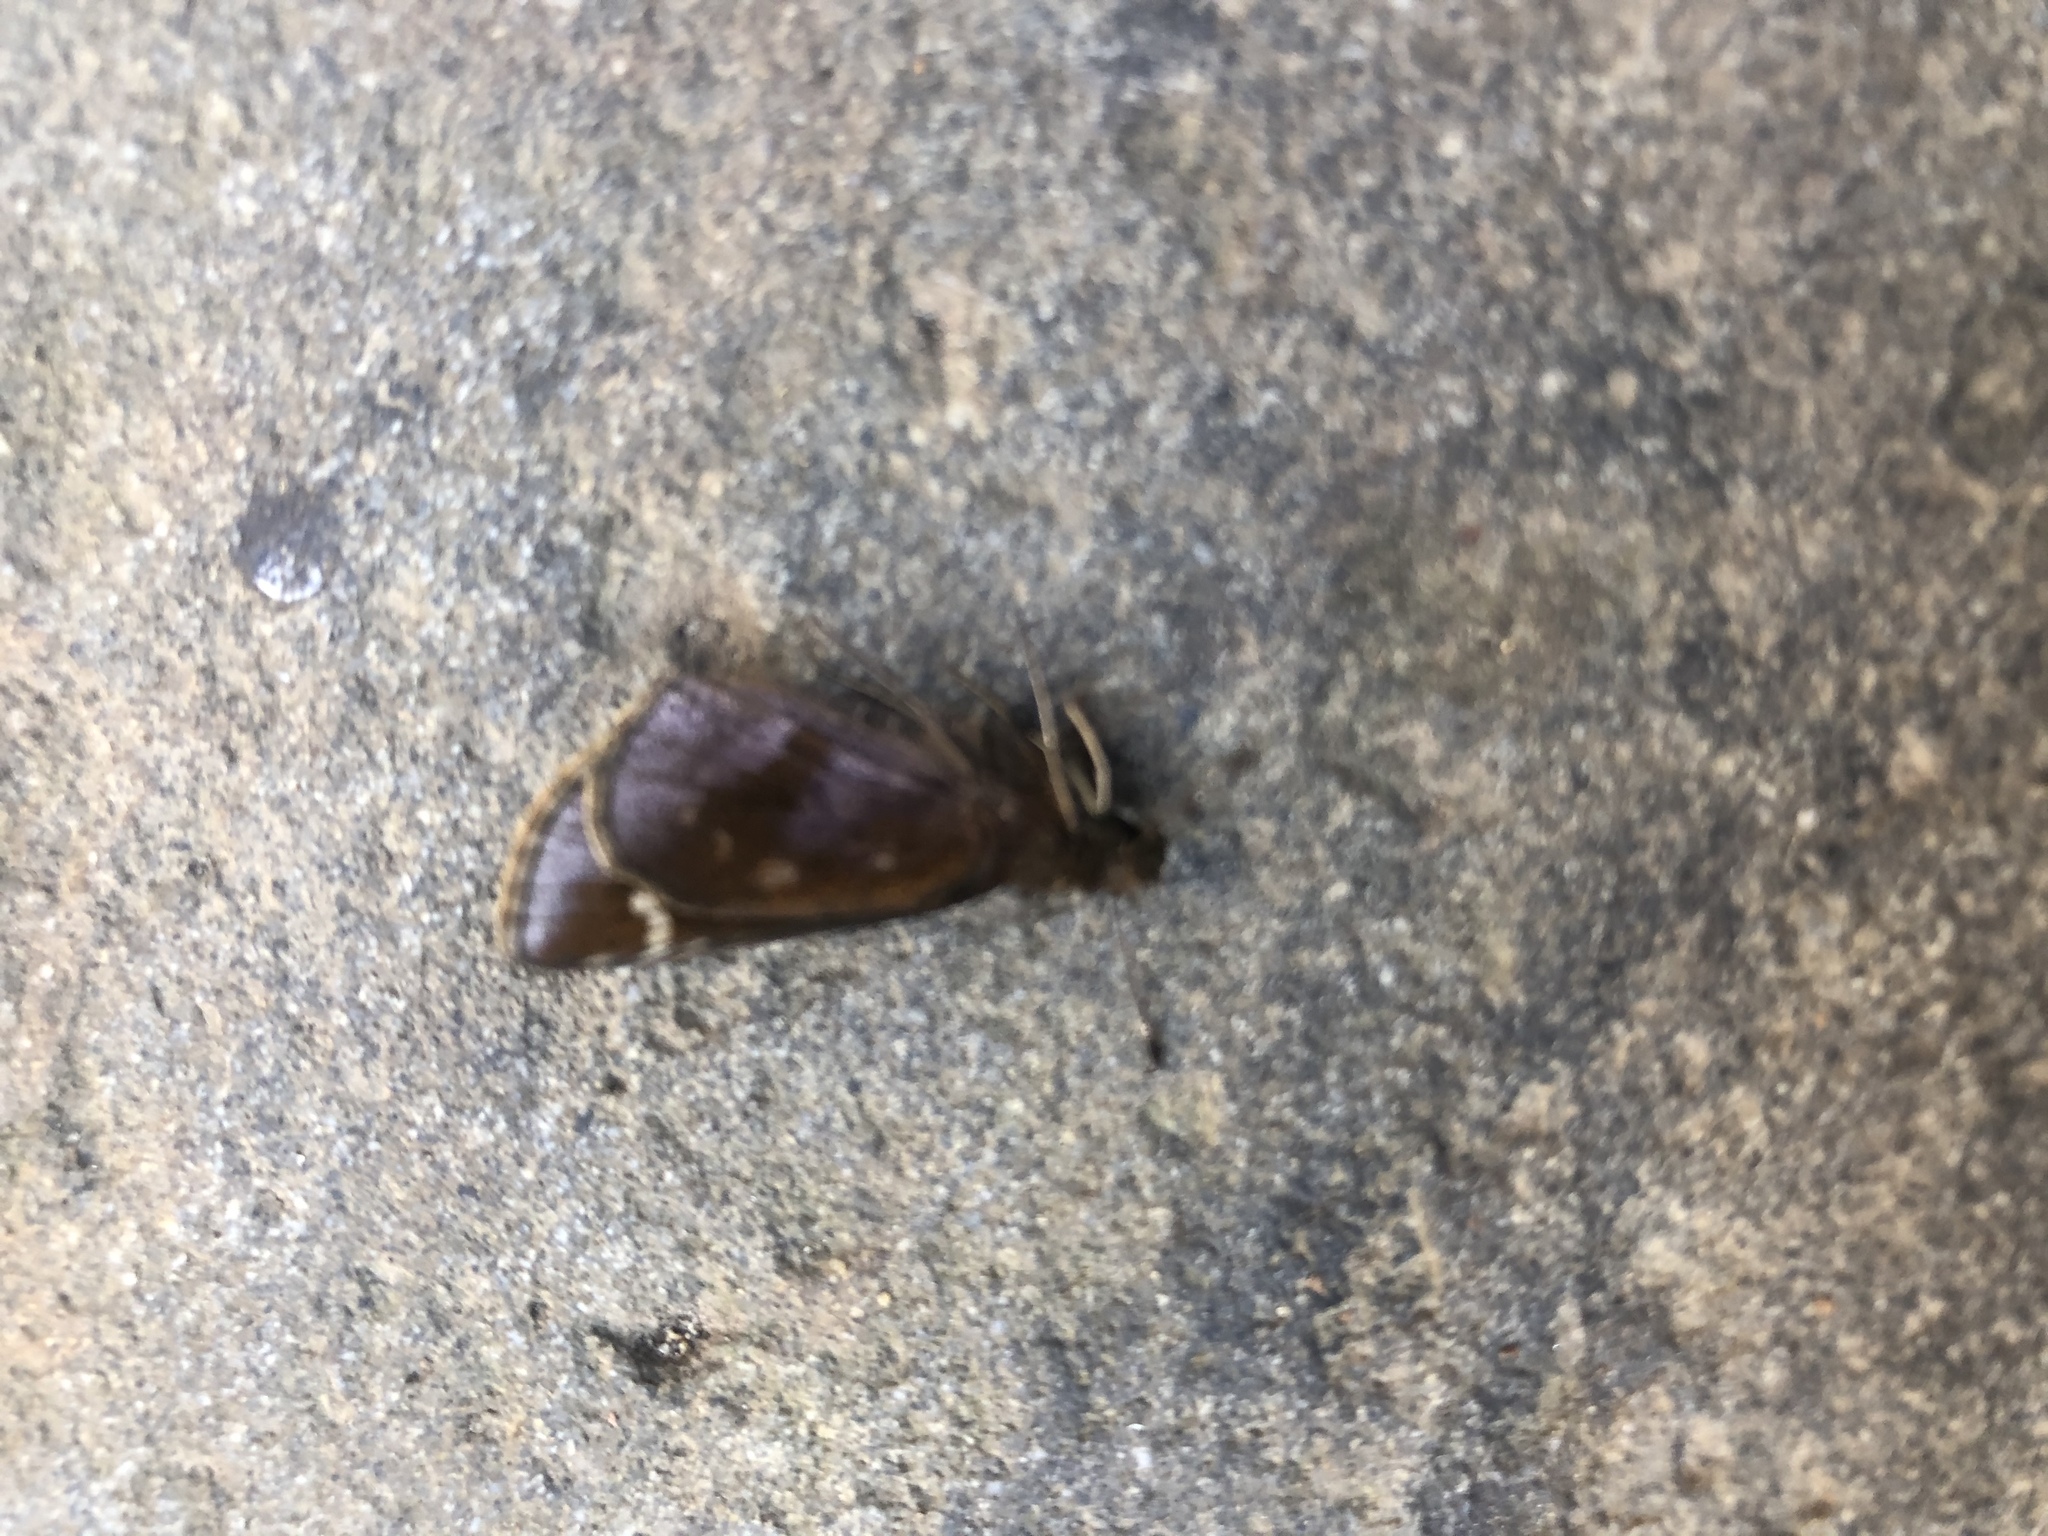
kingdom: Animalia
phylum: Arthropoda
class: Insecta
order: Lepidoptera
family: Hesperiidae
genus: Lerema
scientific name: Lerema accius
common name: Clouded skipper
